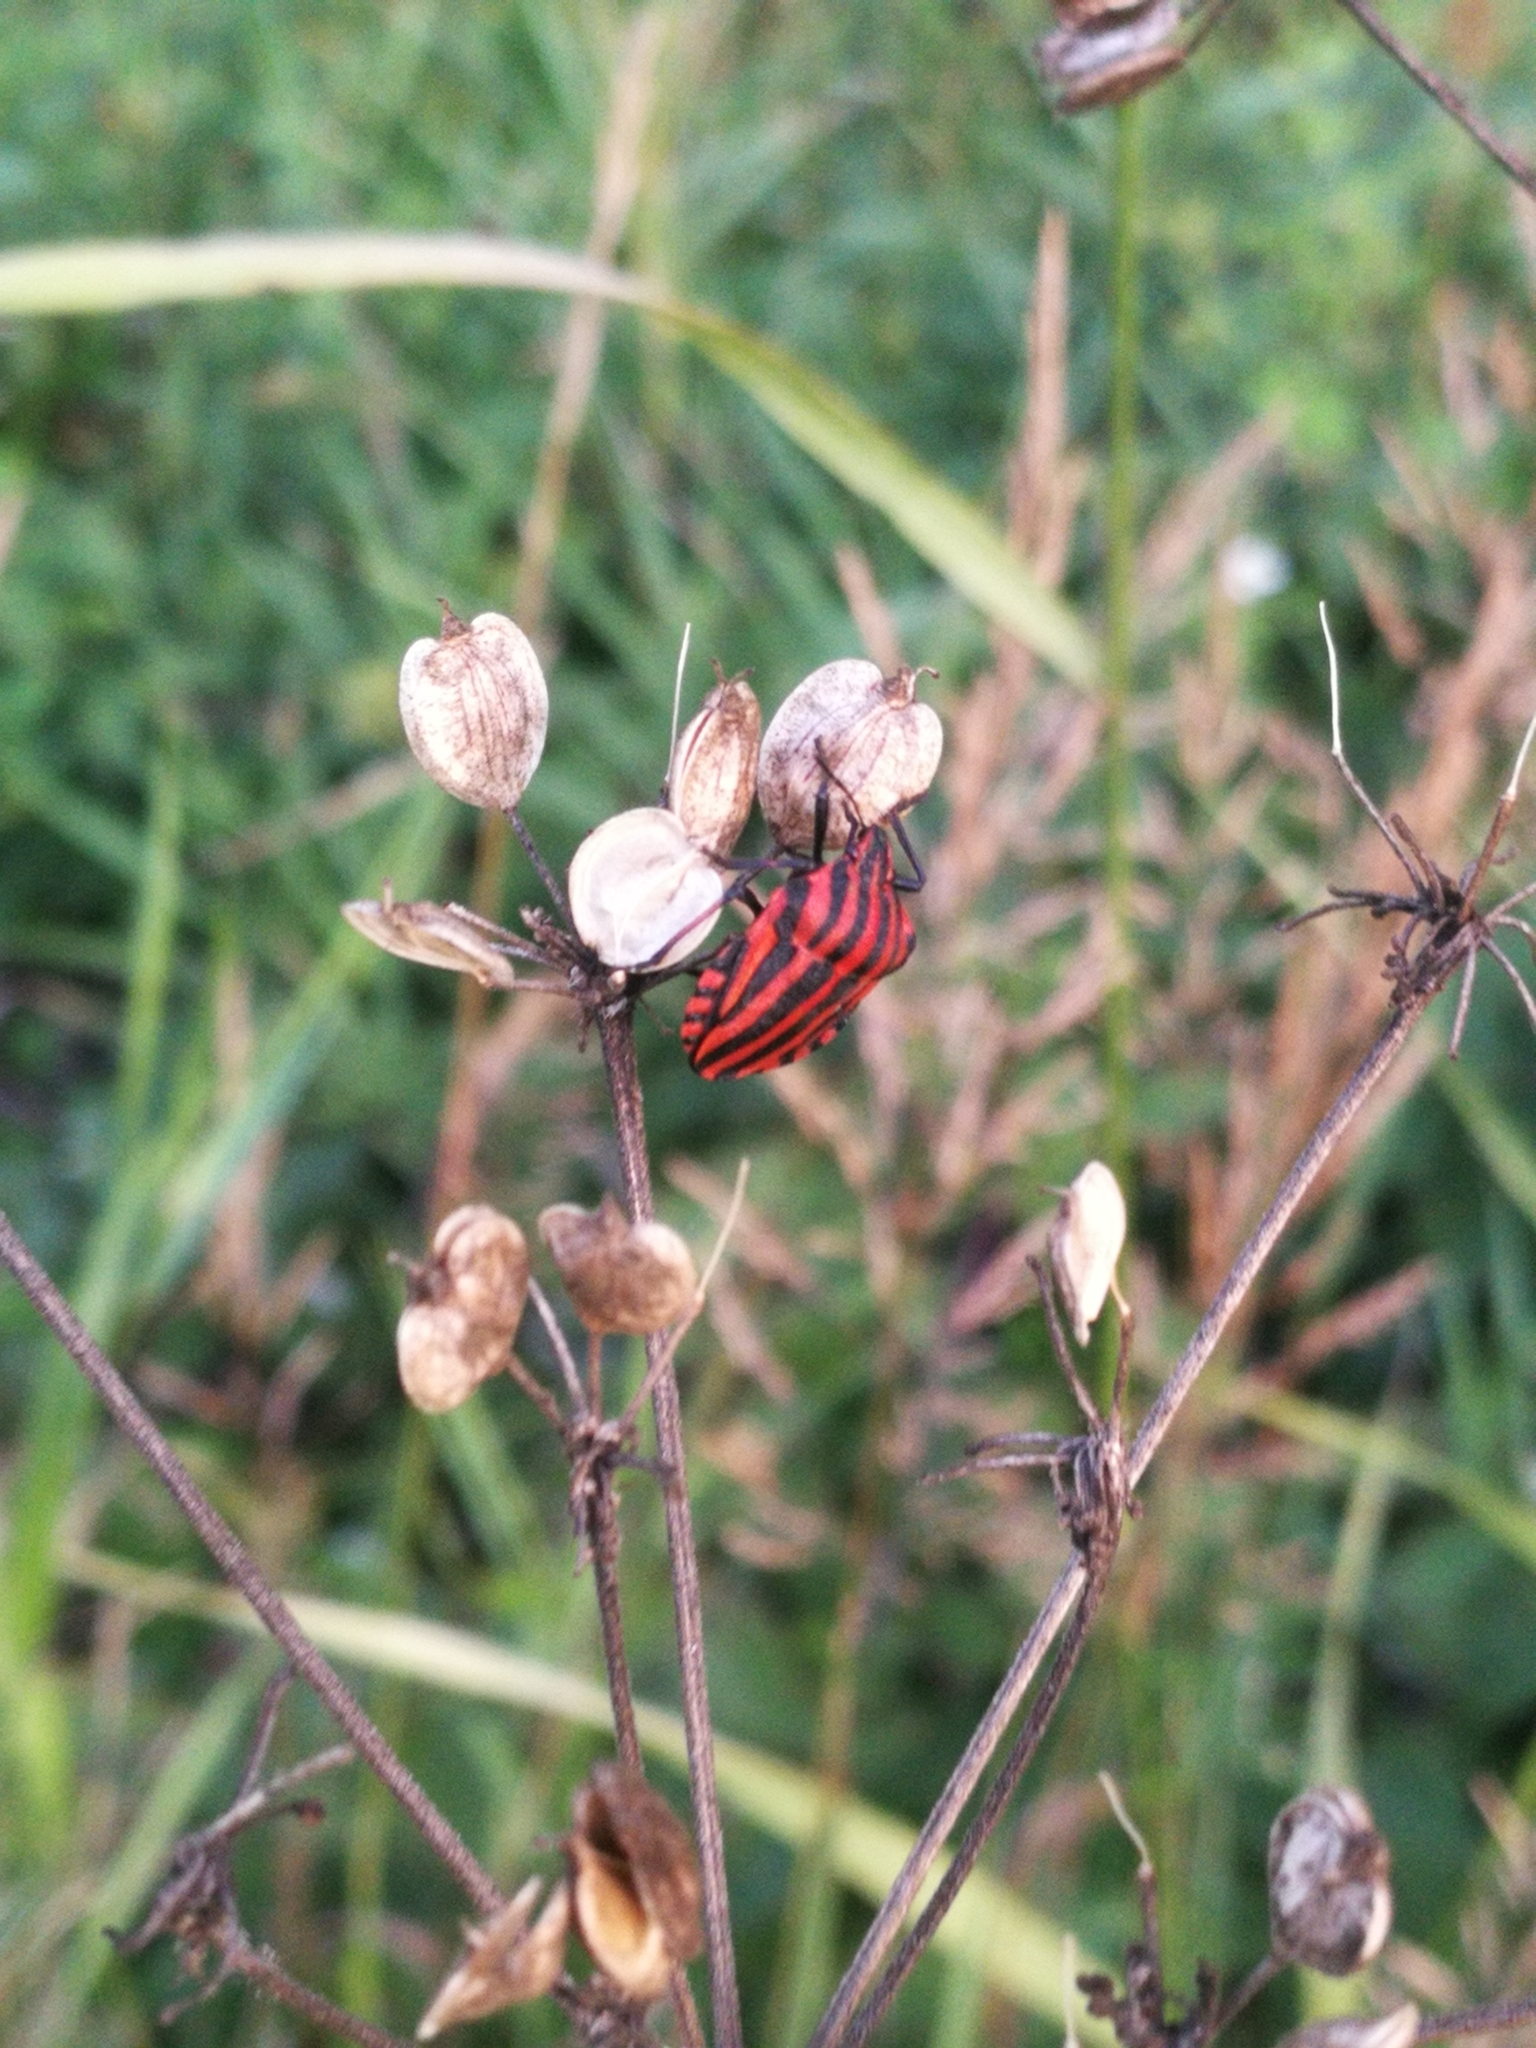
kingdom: Animalia
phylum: Arthropoda
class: Insecta
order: Hemiptera
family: Pentatomidae
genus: Graphosoma
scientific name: Graphosoma italicum
